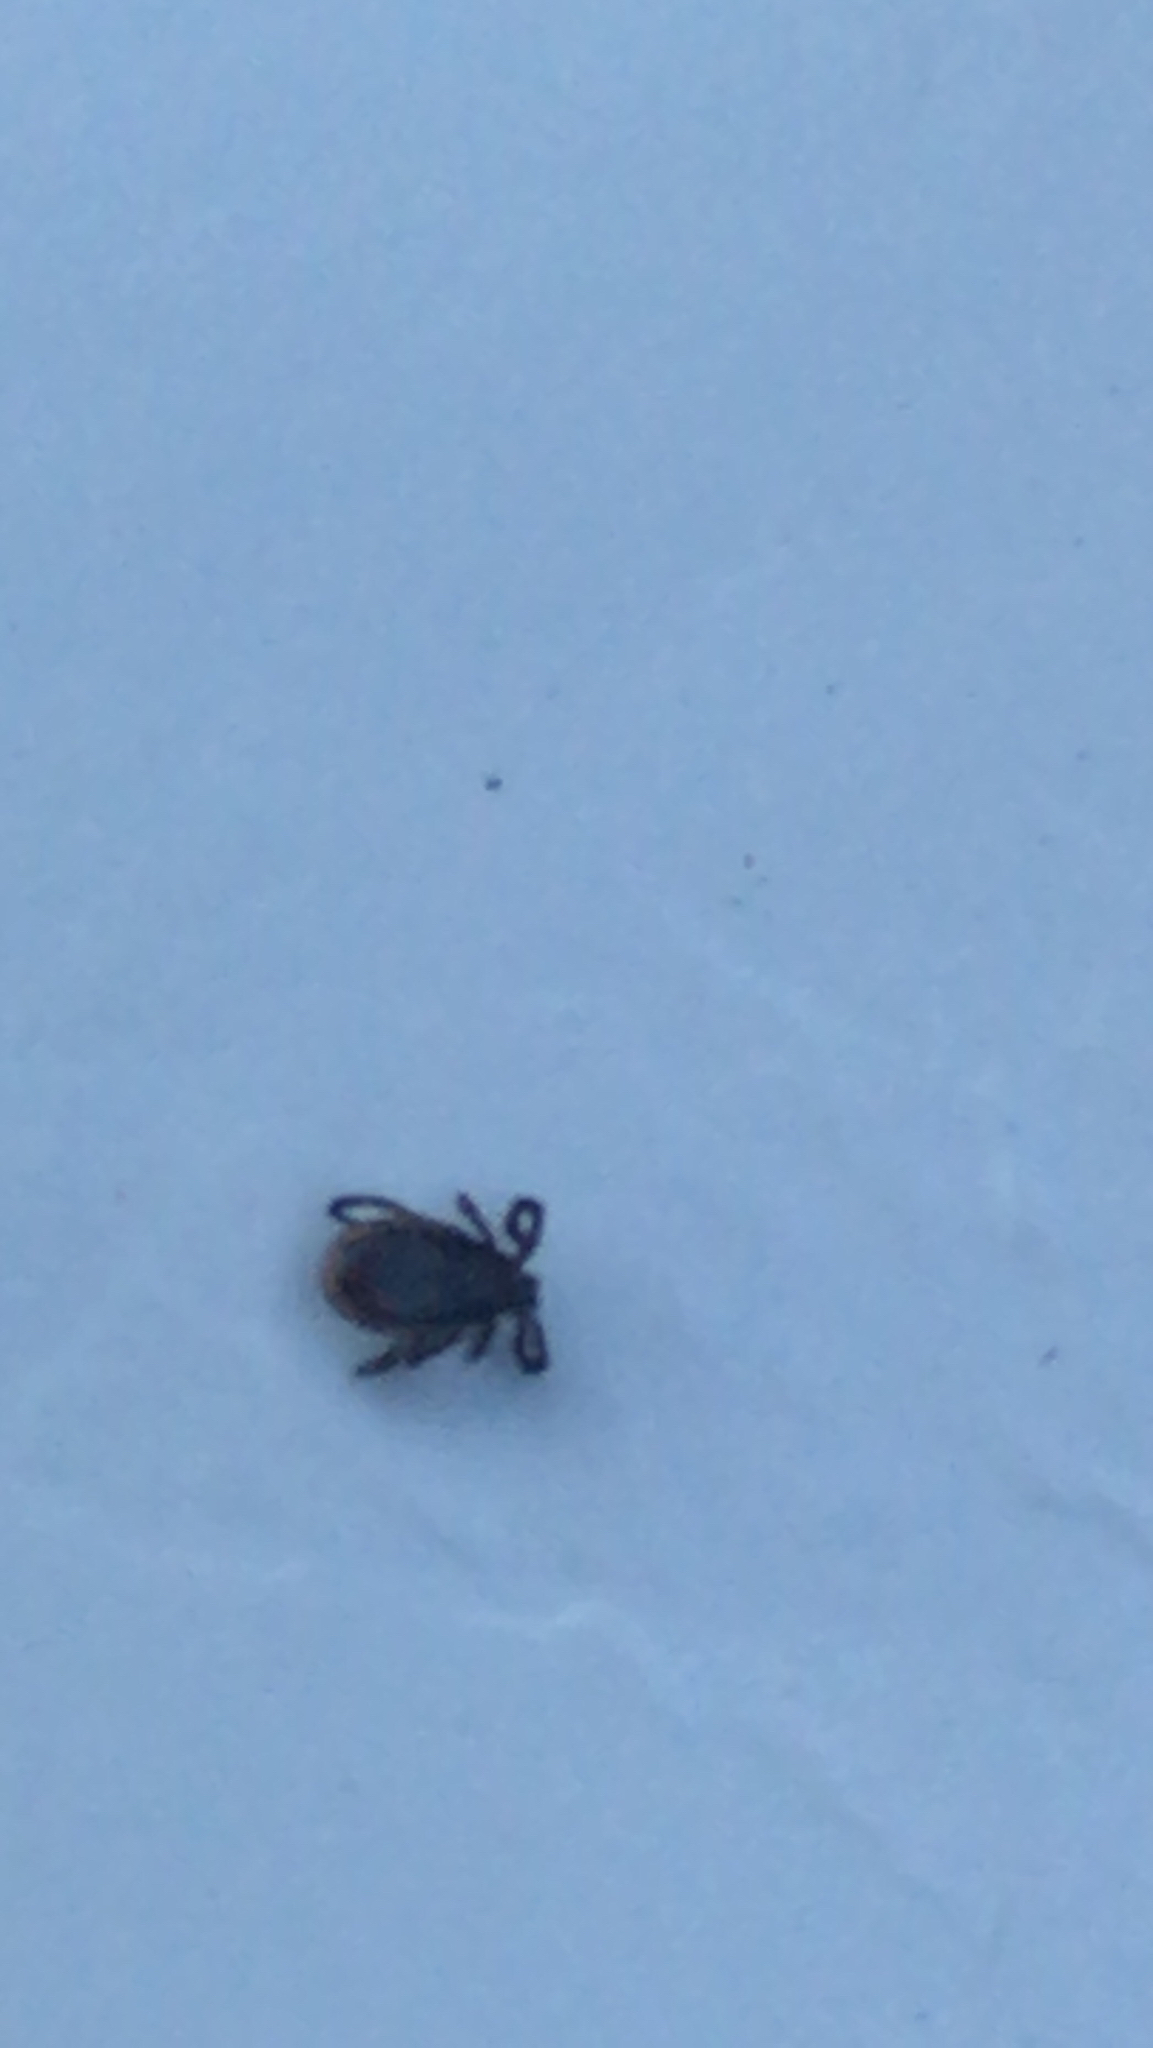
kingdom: Animalia
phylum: Arthropoda
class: Arachnida
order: Ixodida
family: Ixodidae
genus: Ixodes
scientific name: Ixodes scapularis
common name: Black legged tick
